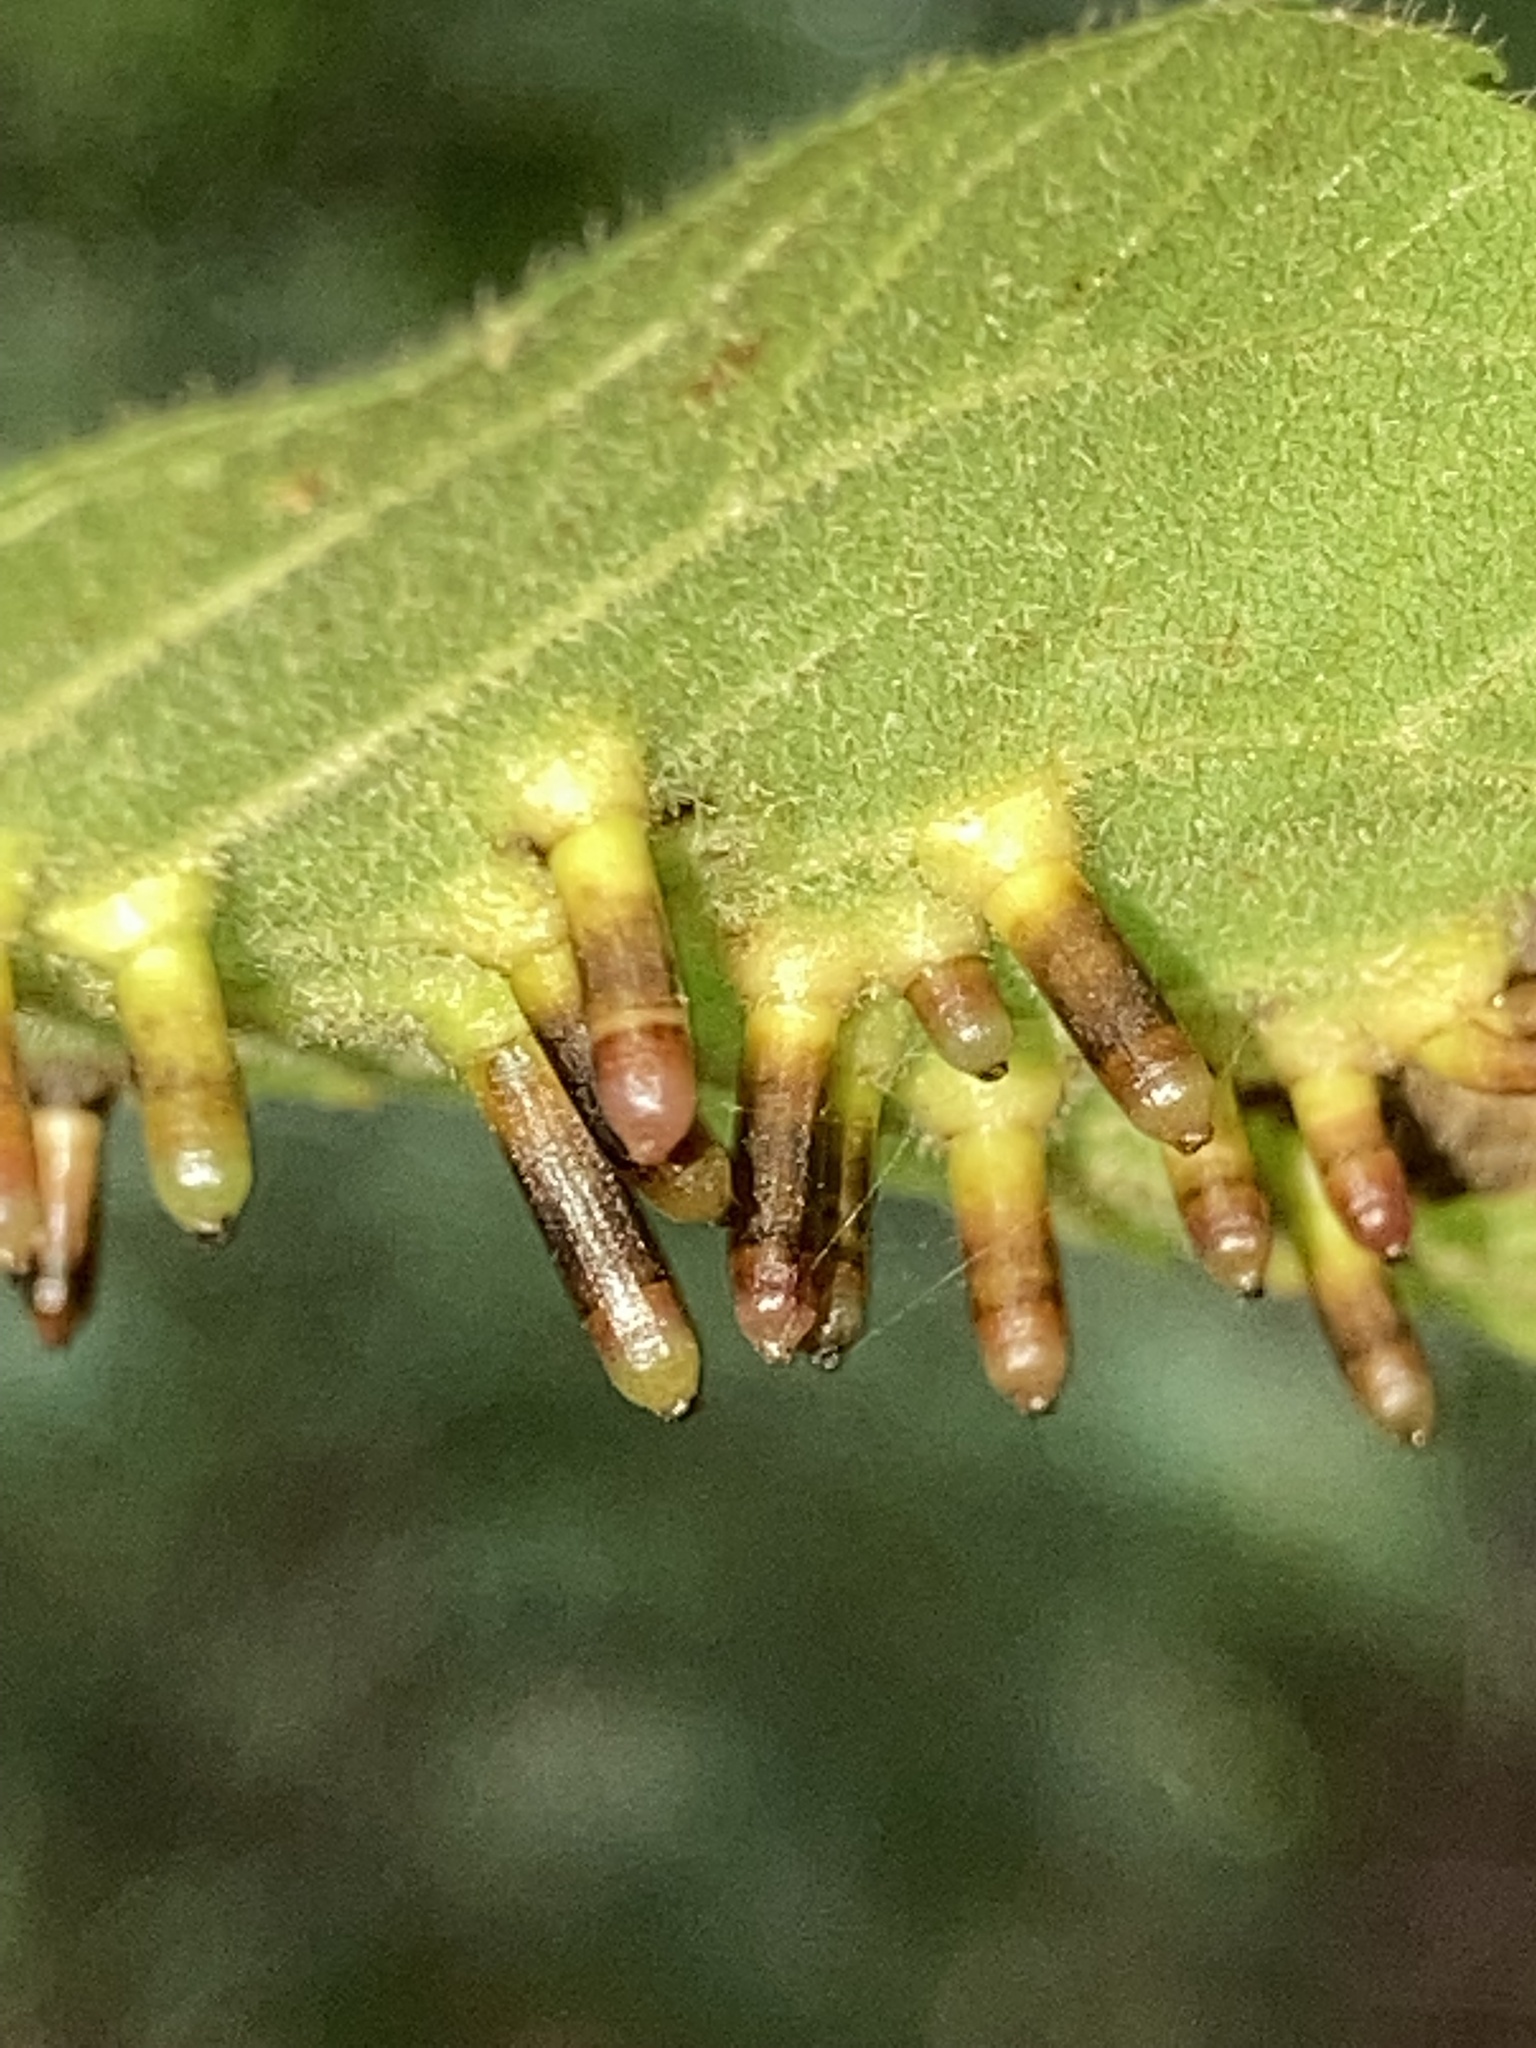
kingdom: Animalia
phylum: Arthropoda
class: Insecta
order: Diptera
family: Cecidomyiidae
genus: Caryomyia
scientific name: Caryomyia tubicola
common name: Hickory bullet gall midge
